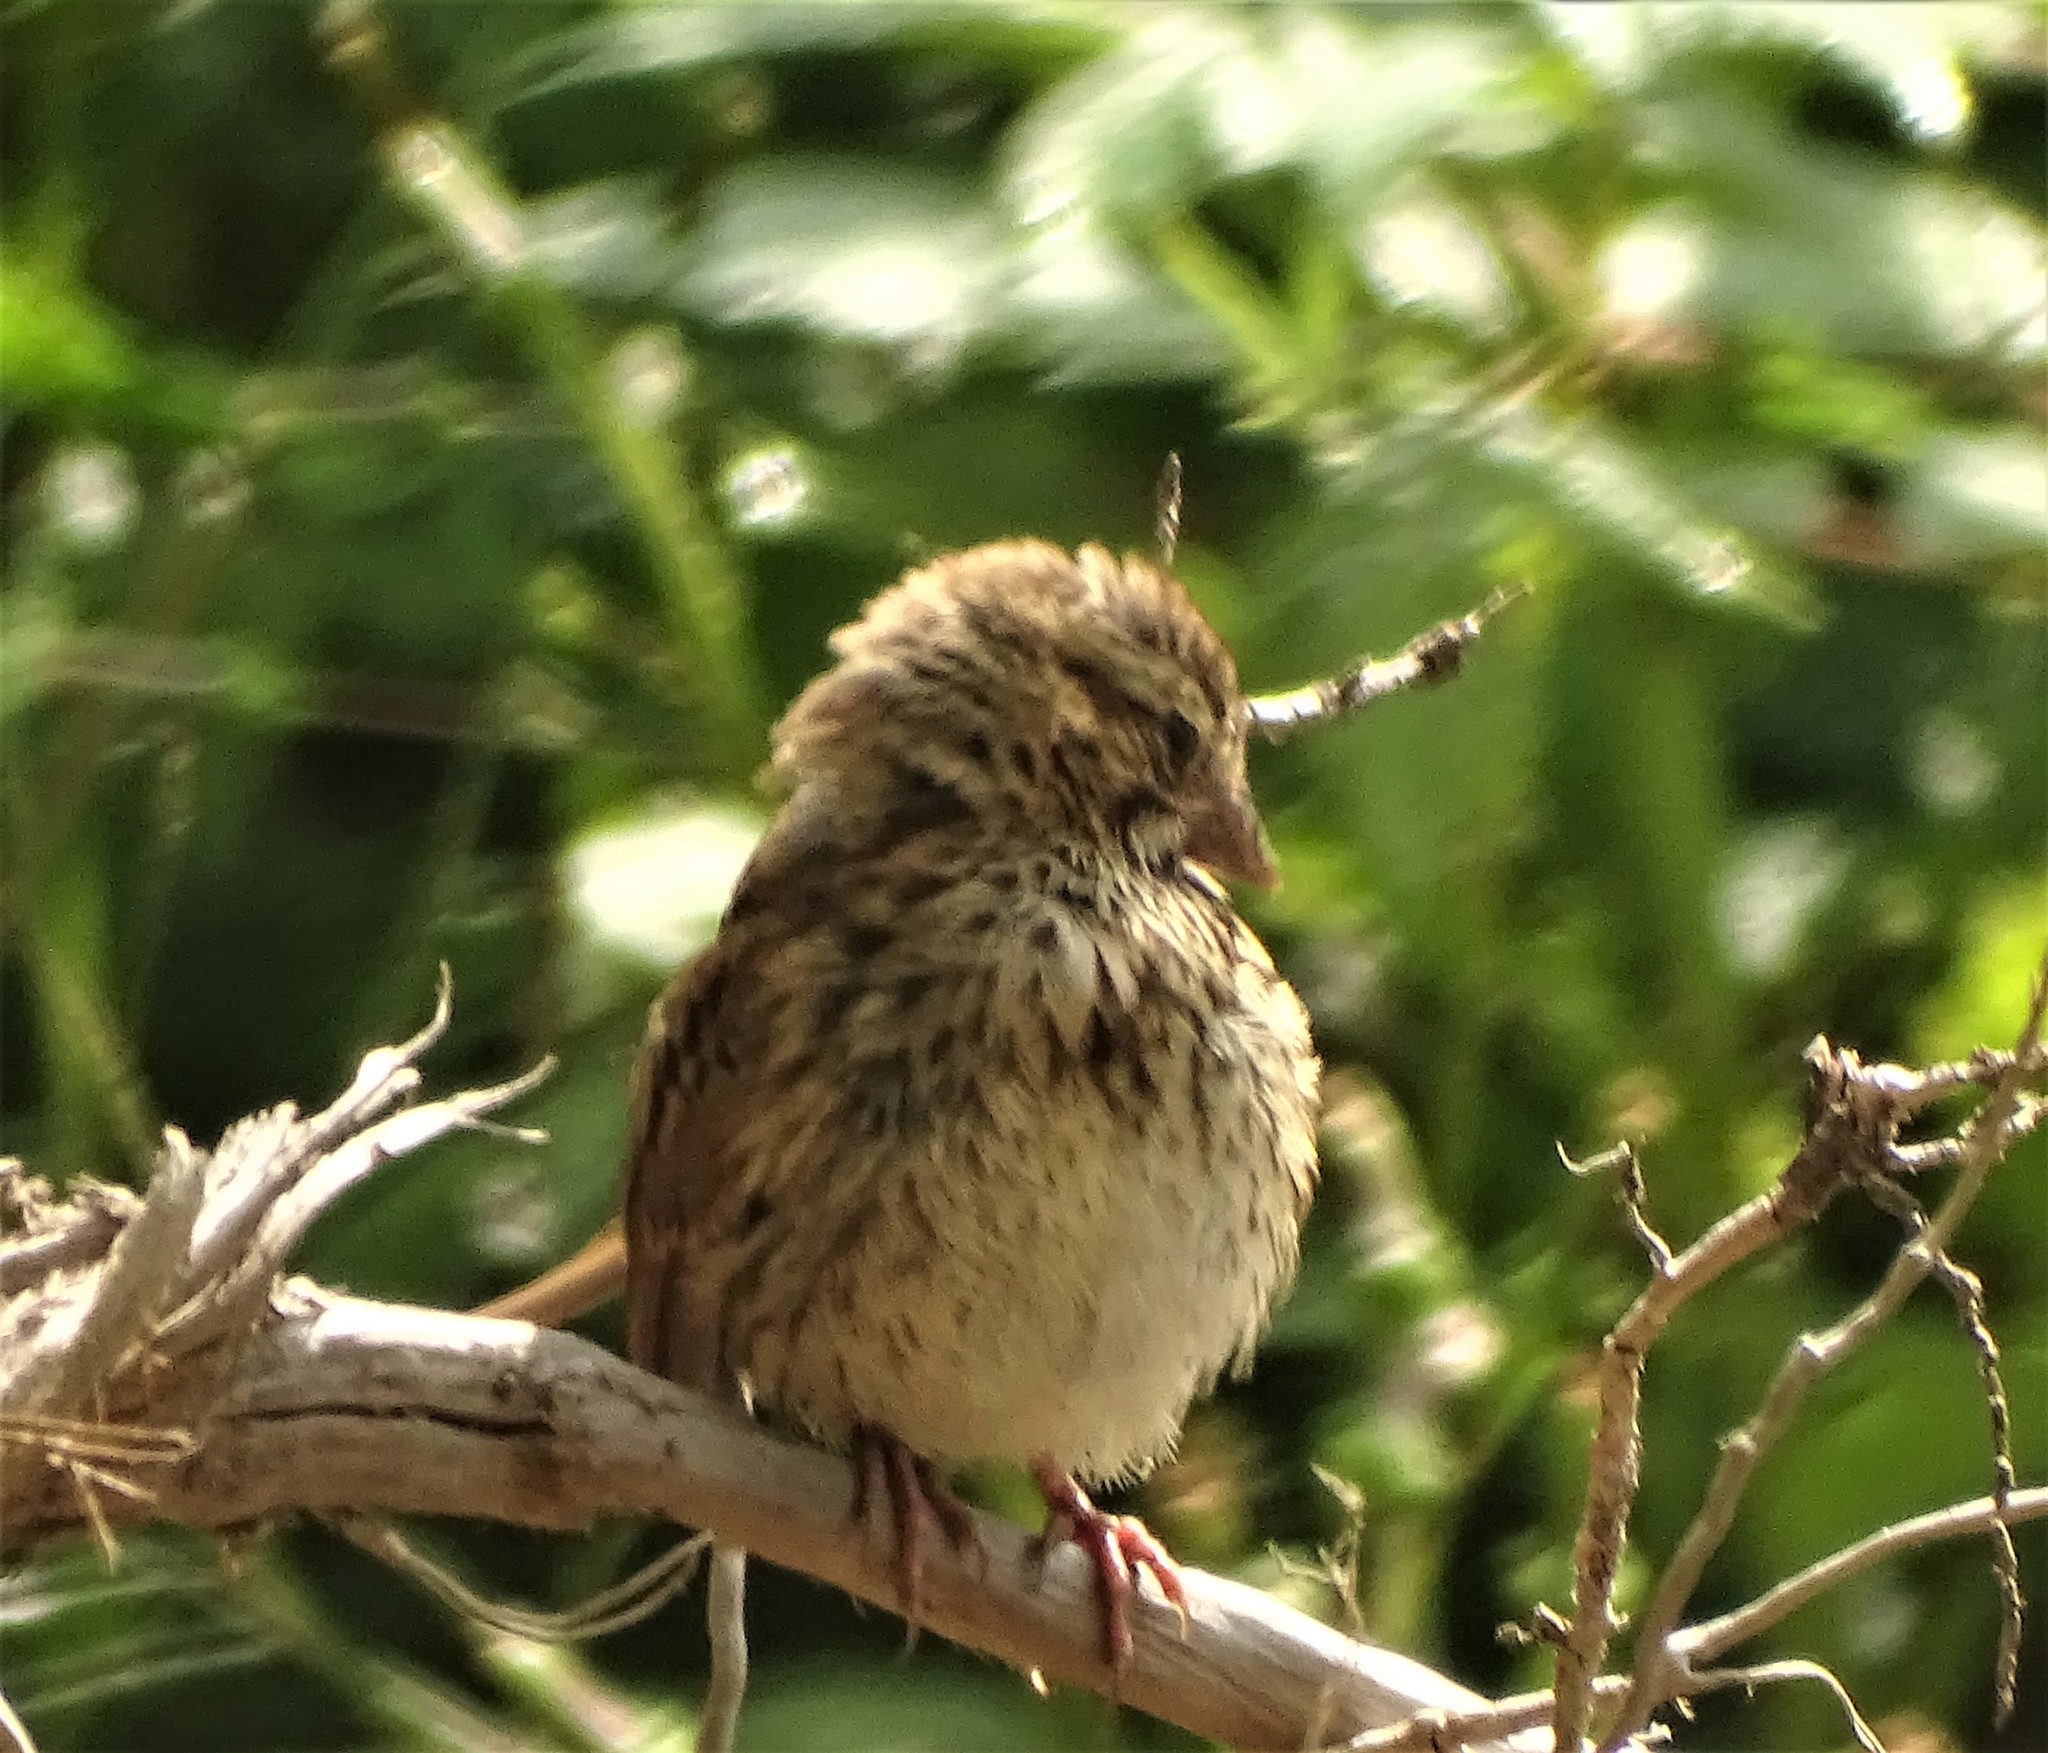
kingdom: Animalia
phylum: Chordata
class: Aves
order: Passeriformes
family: Passerellidae
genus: Melospiza
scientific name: Melospiza melodia
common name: Song sparrow
